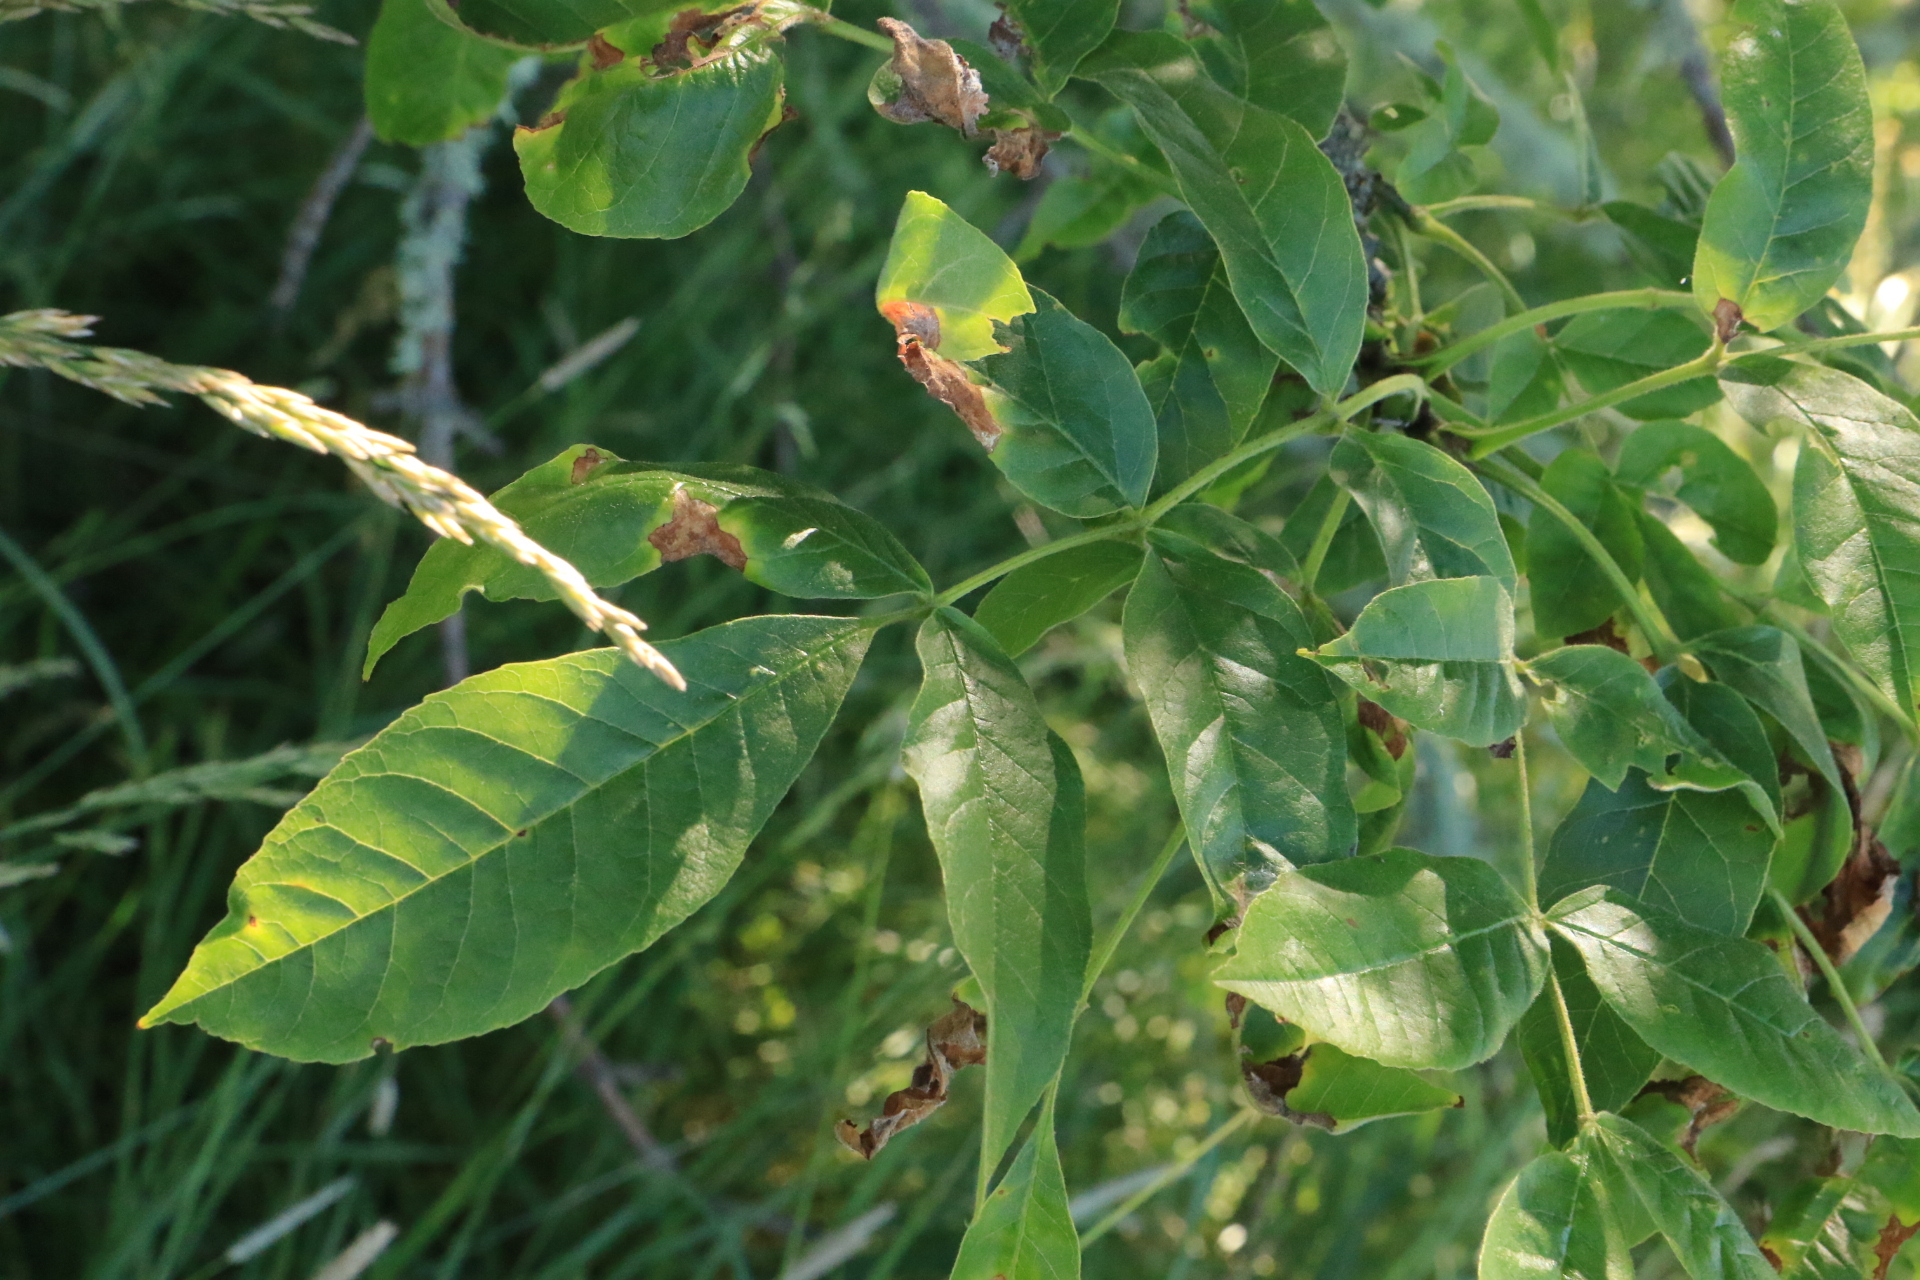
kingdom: Plantae
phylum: Tracheophyta
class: Magnoliopsida
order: Lamiales
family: Oleaceae
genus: Fraxinus
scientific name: Fraxinus latifolia
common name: Oregon ash
